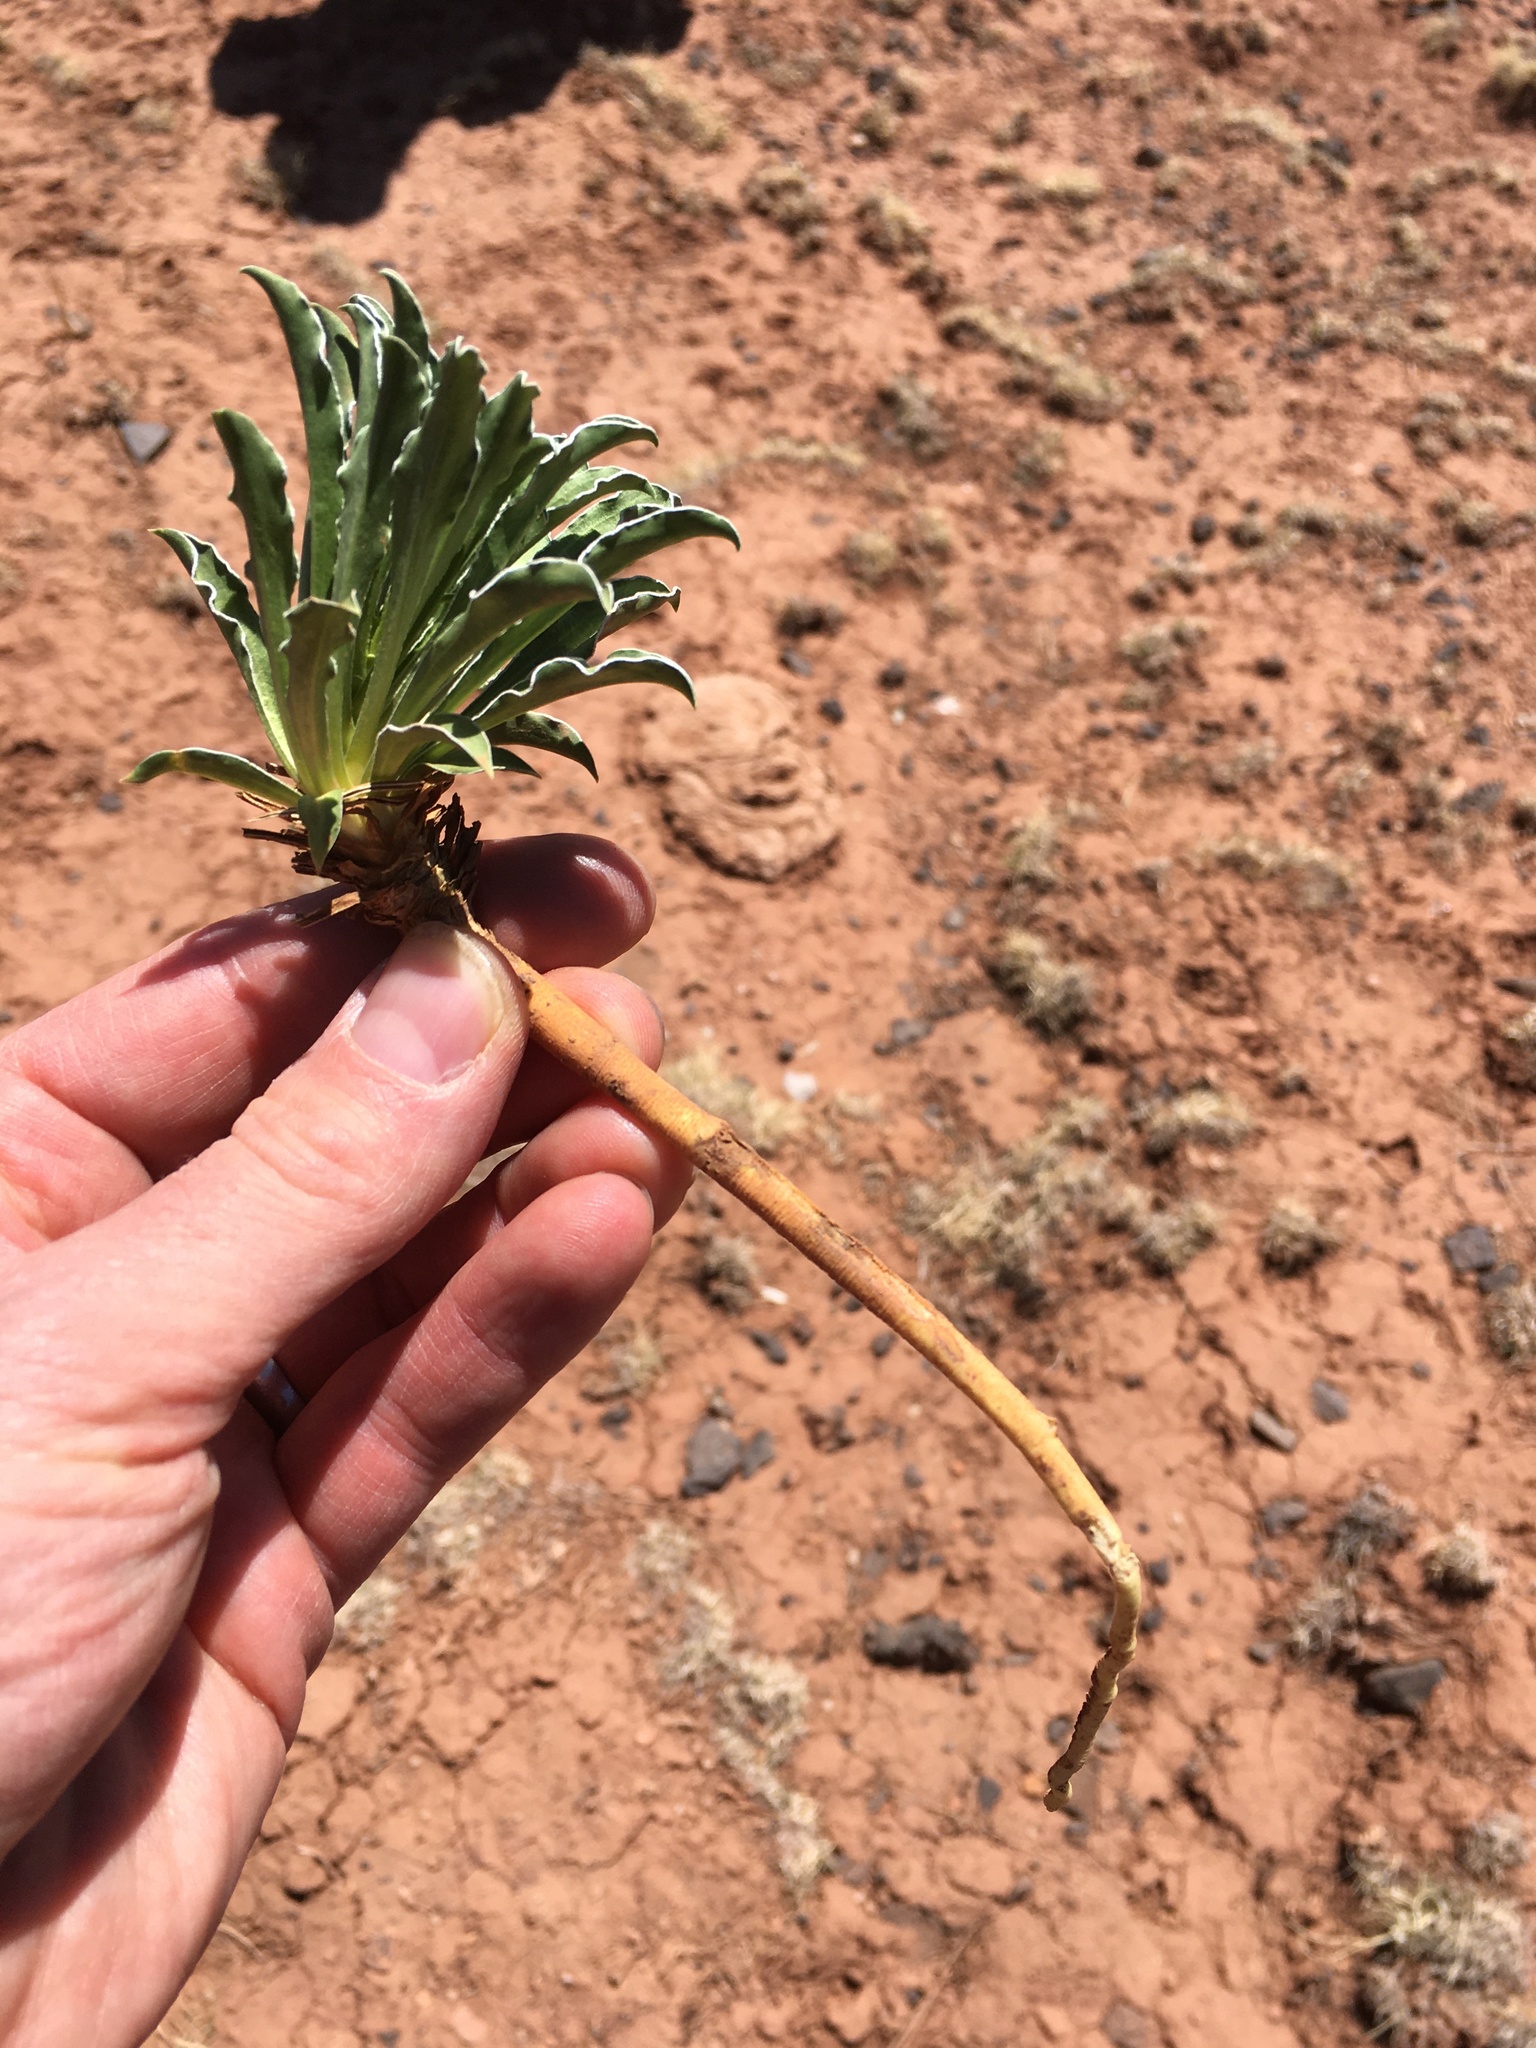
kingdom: Plantae
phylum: Tracheophyta
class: Magnoliopsida
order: Gentianales
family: Gentianaceae
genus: Frasera
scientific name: Frasera albomarginata
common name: Desert frasera
